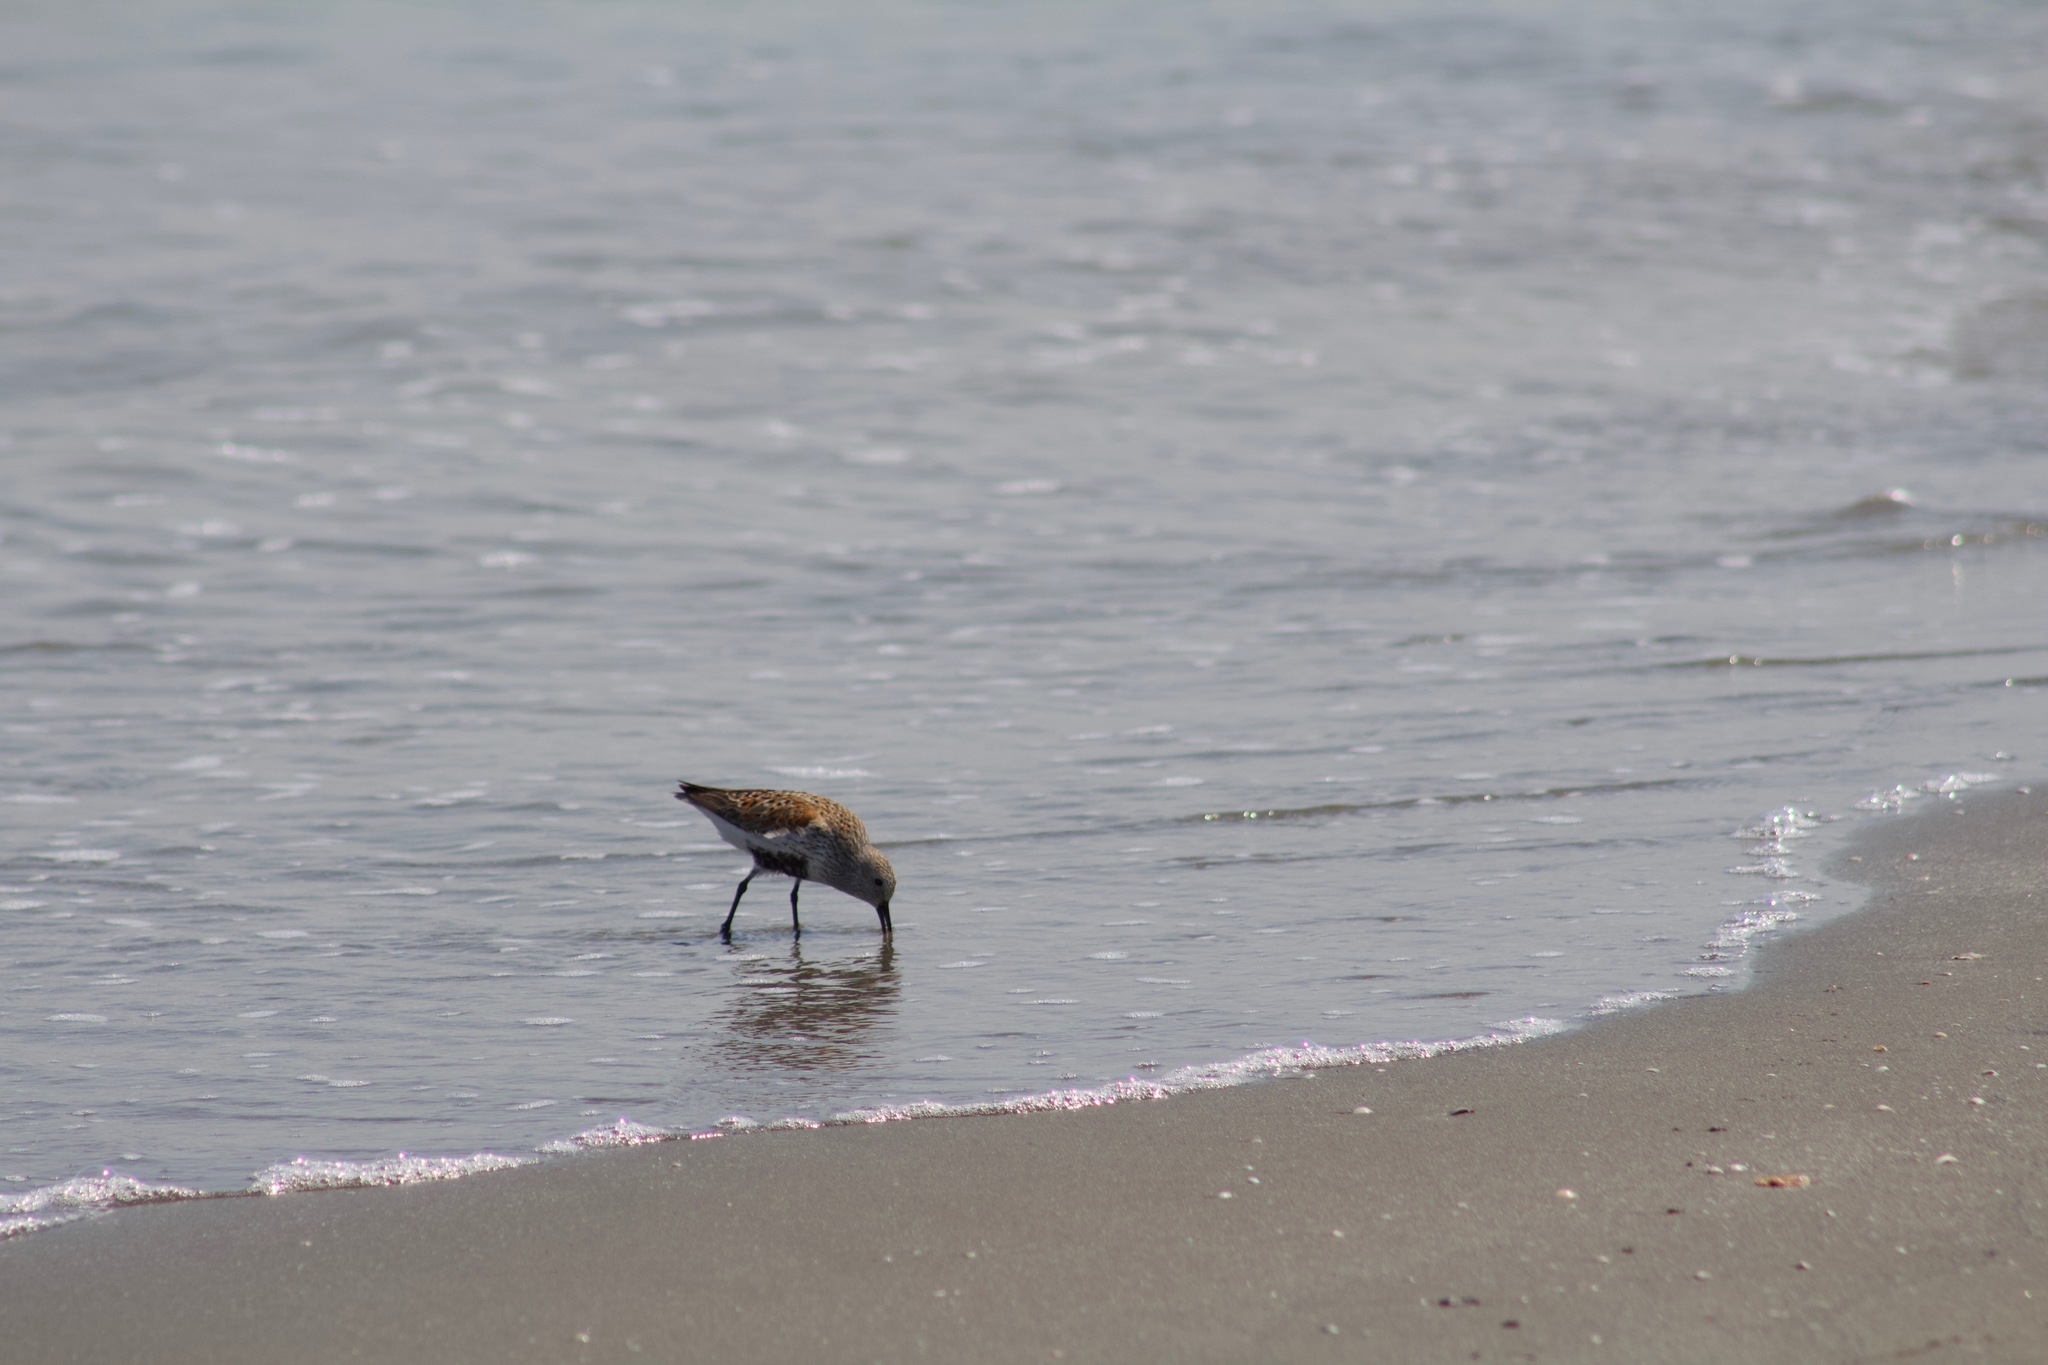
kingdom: Animalia
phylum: Chordata
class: Aves
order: Charadriiformes
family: Scolopacidae
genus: Calidris
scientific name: Calidris alpina
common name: Dunlin
